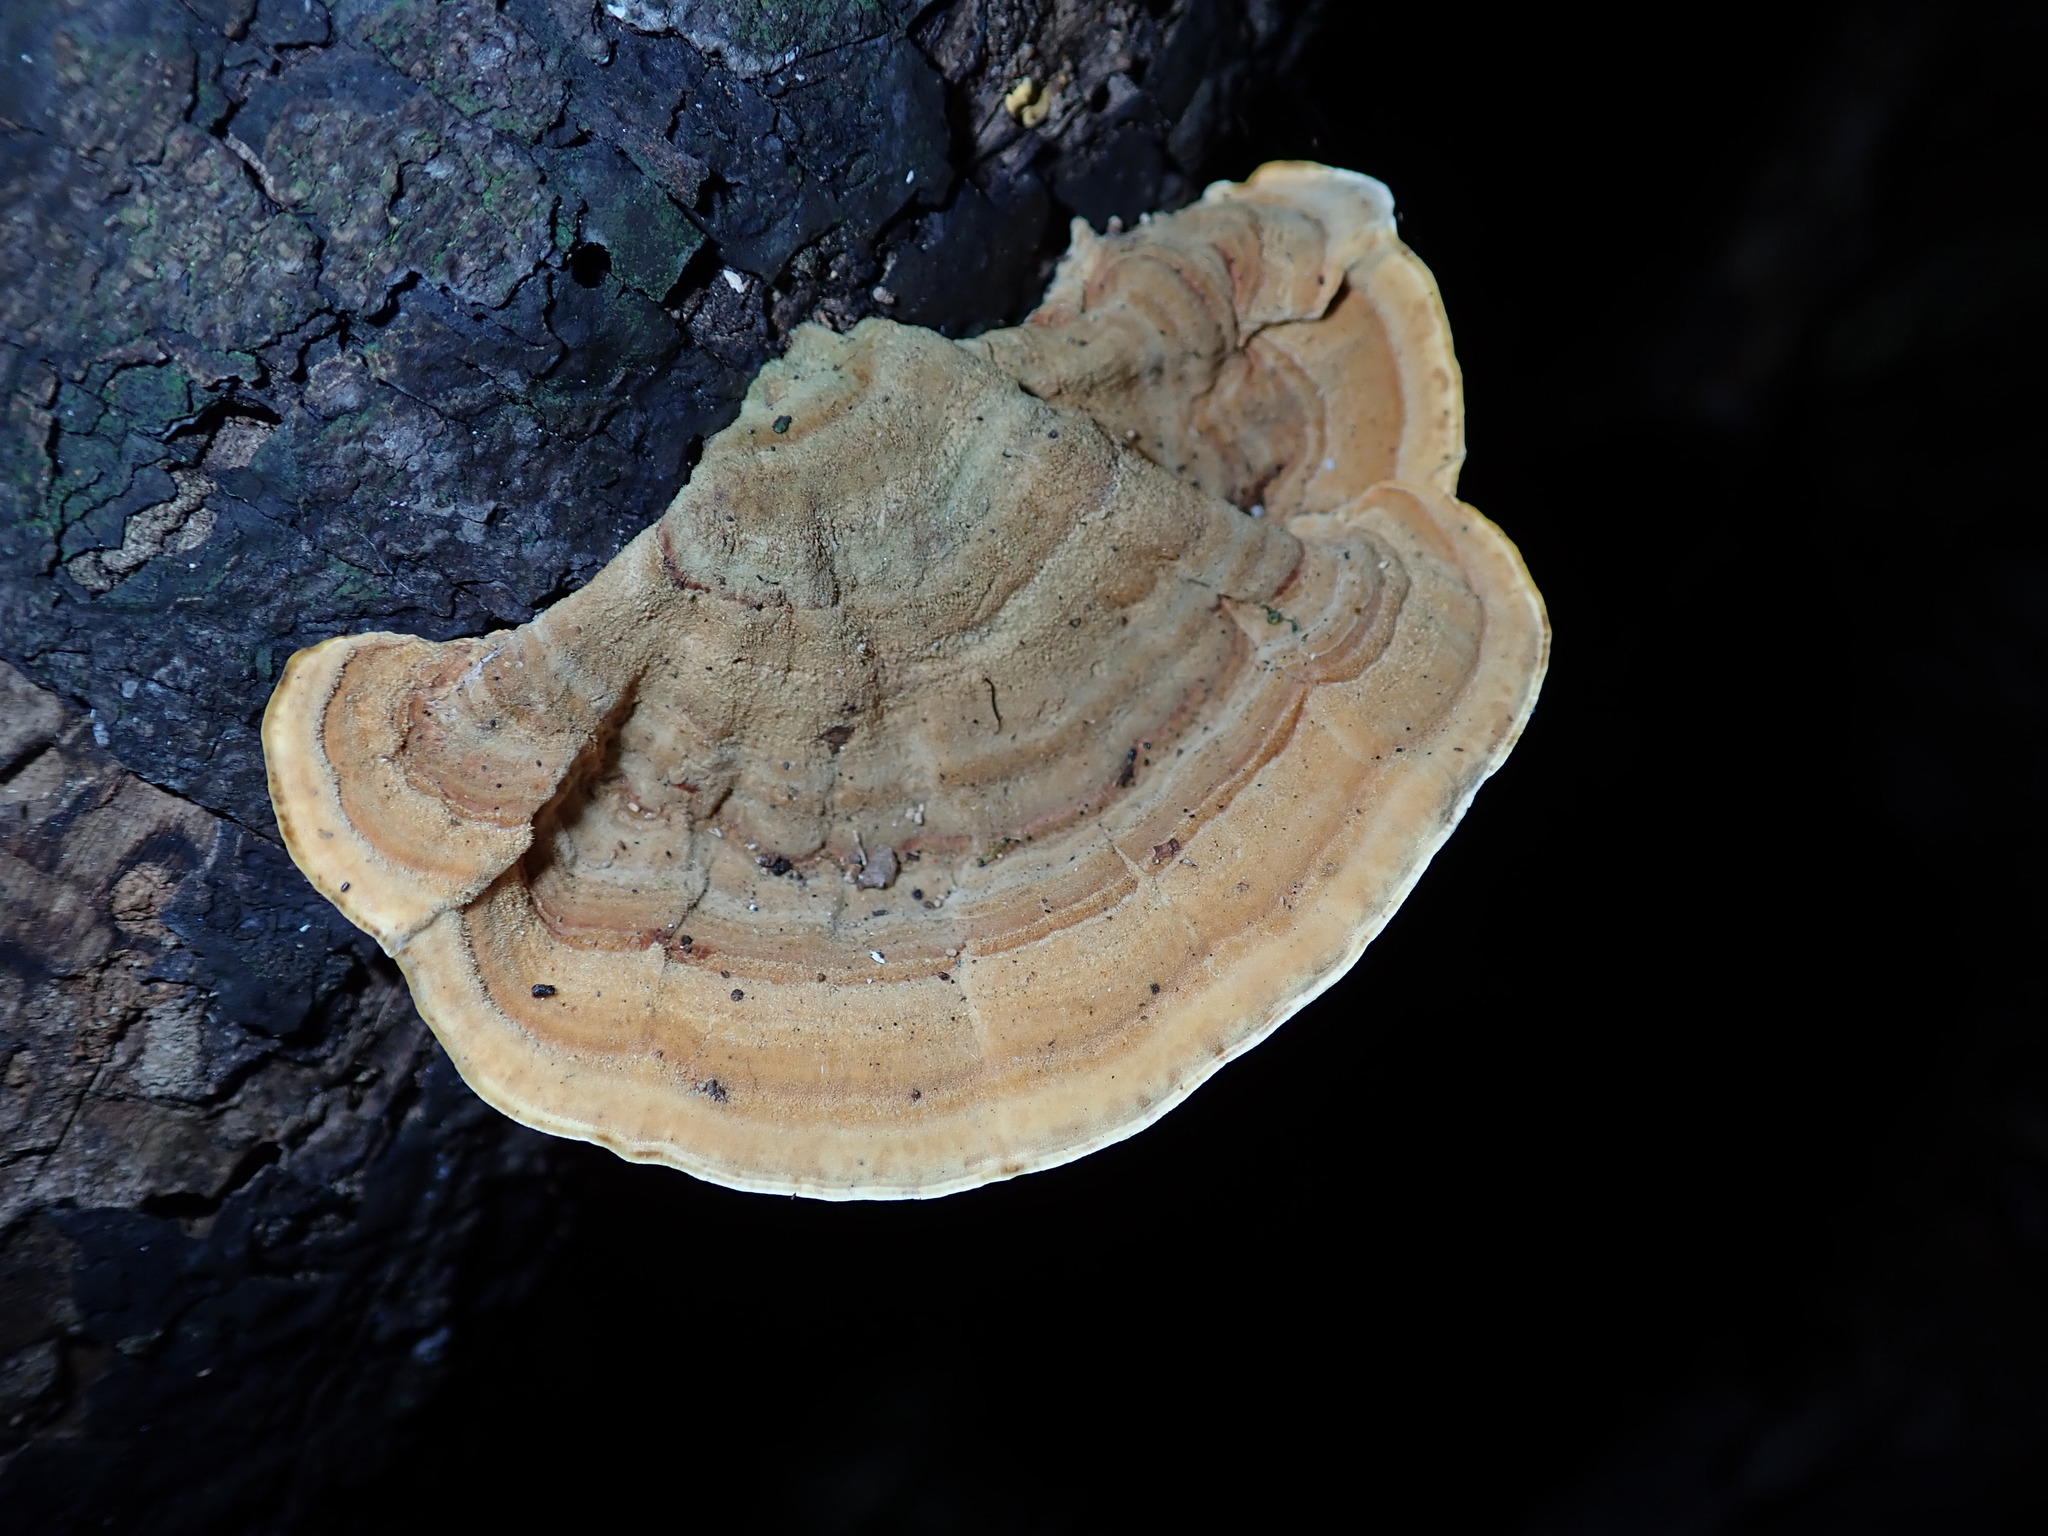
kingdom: Fungi
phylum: Basidiomycota
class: Agaricomycetes
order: Russulales
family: Stereaceae
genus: Stereum
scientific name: Stereum versicolor
